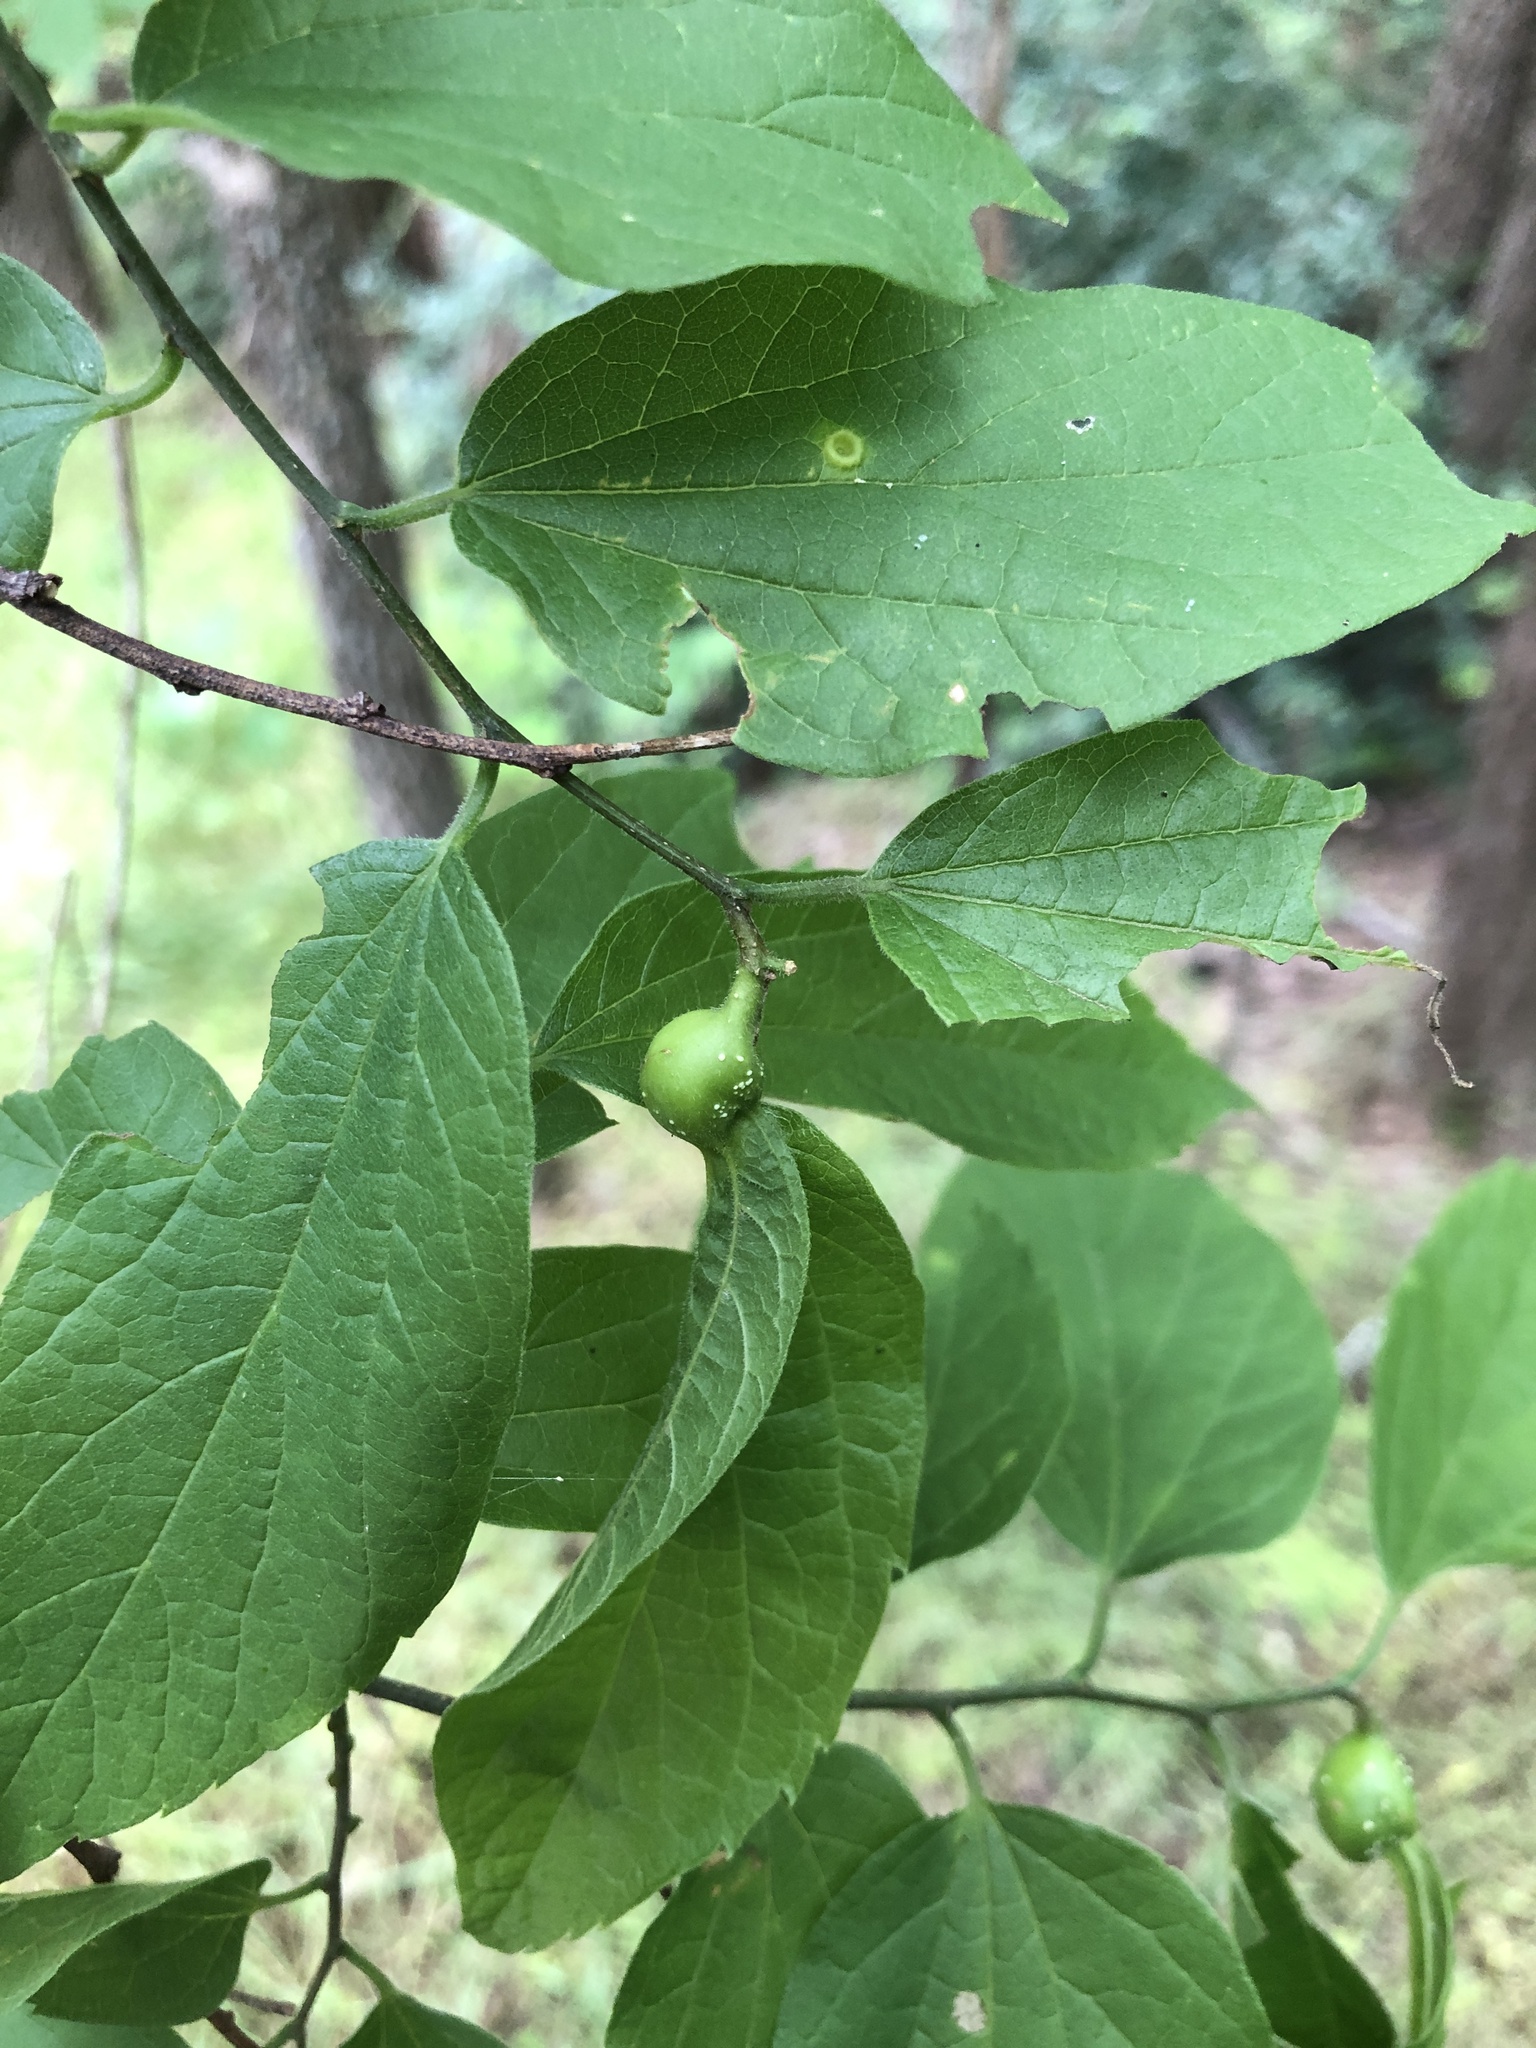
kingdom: Animalia
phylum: Arthropoda
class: Insecta
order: Hemiptera
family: Aphalaridae
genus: Pachypsylla
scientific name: Pachypsylla venusta
